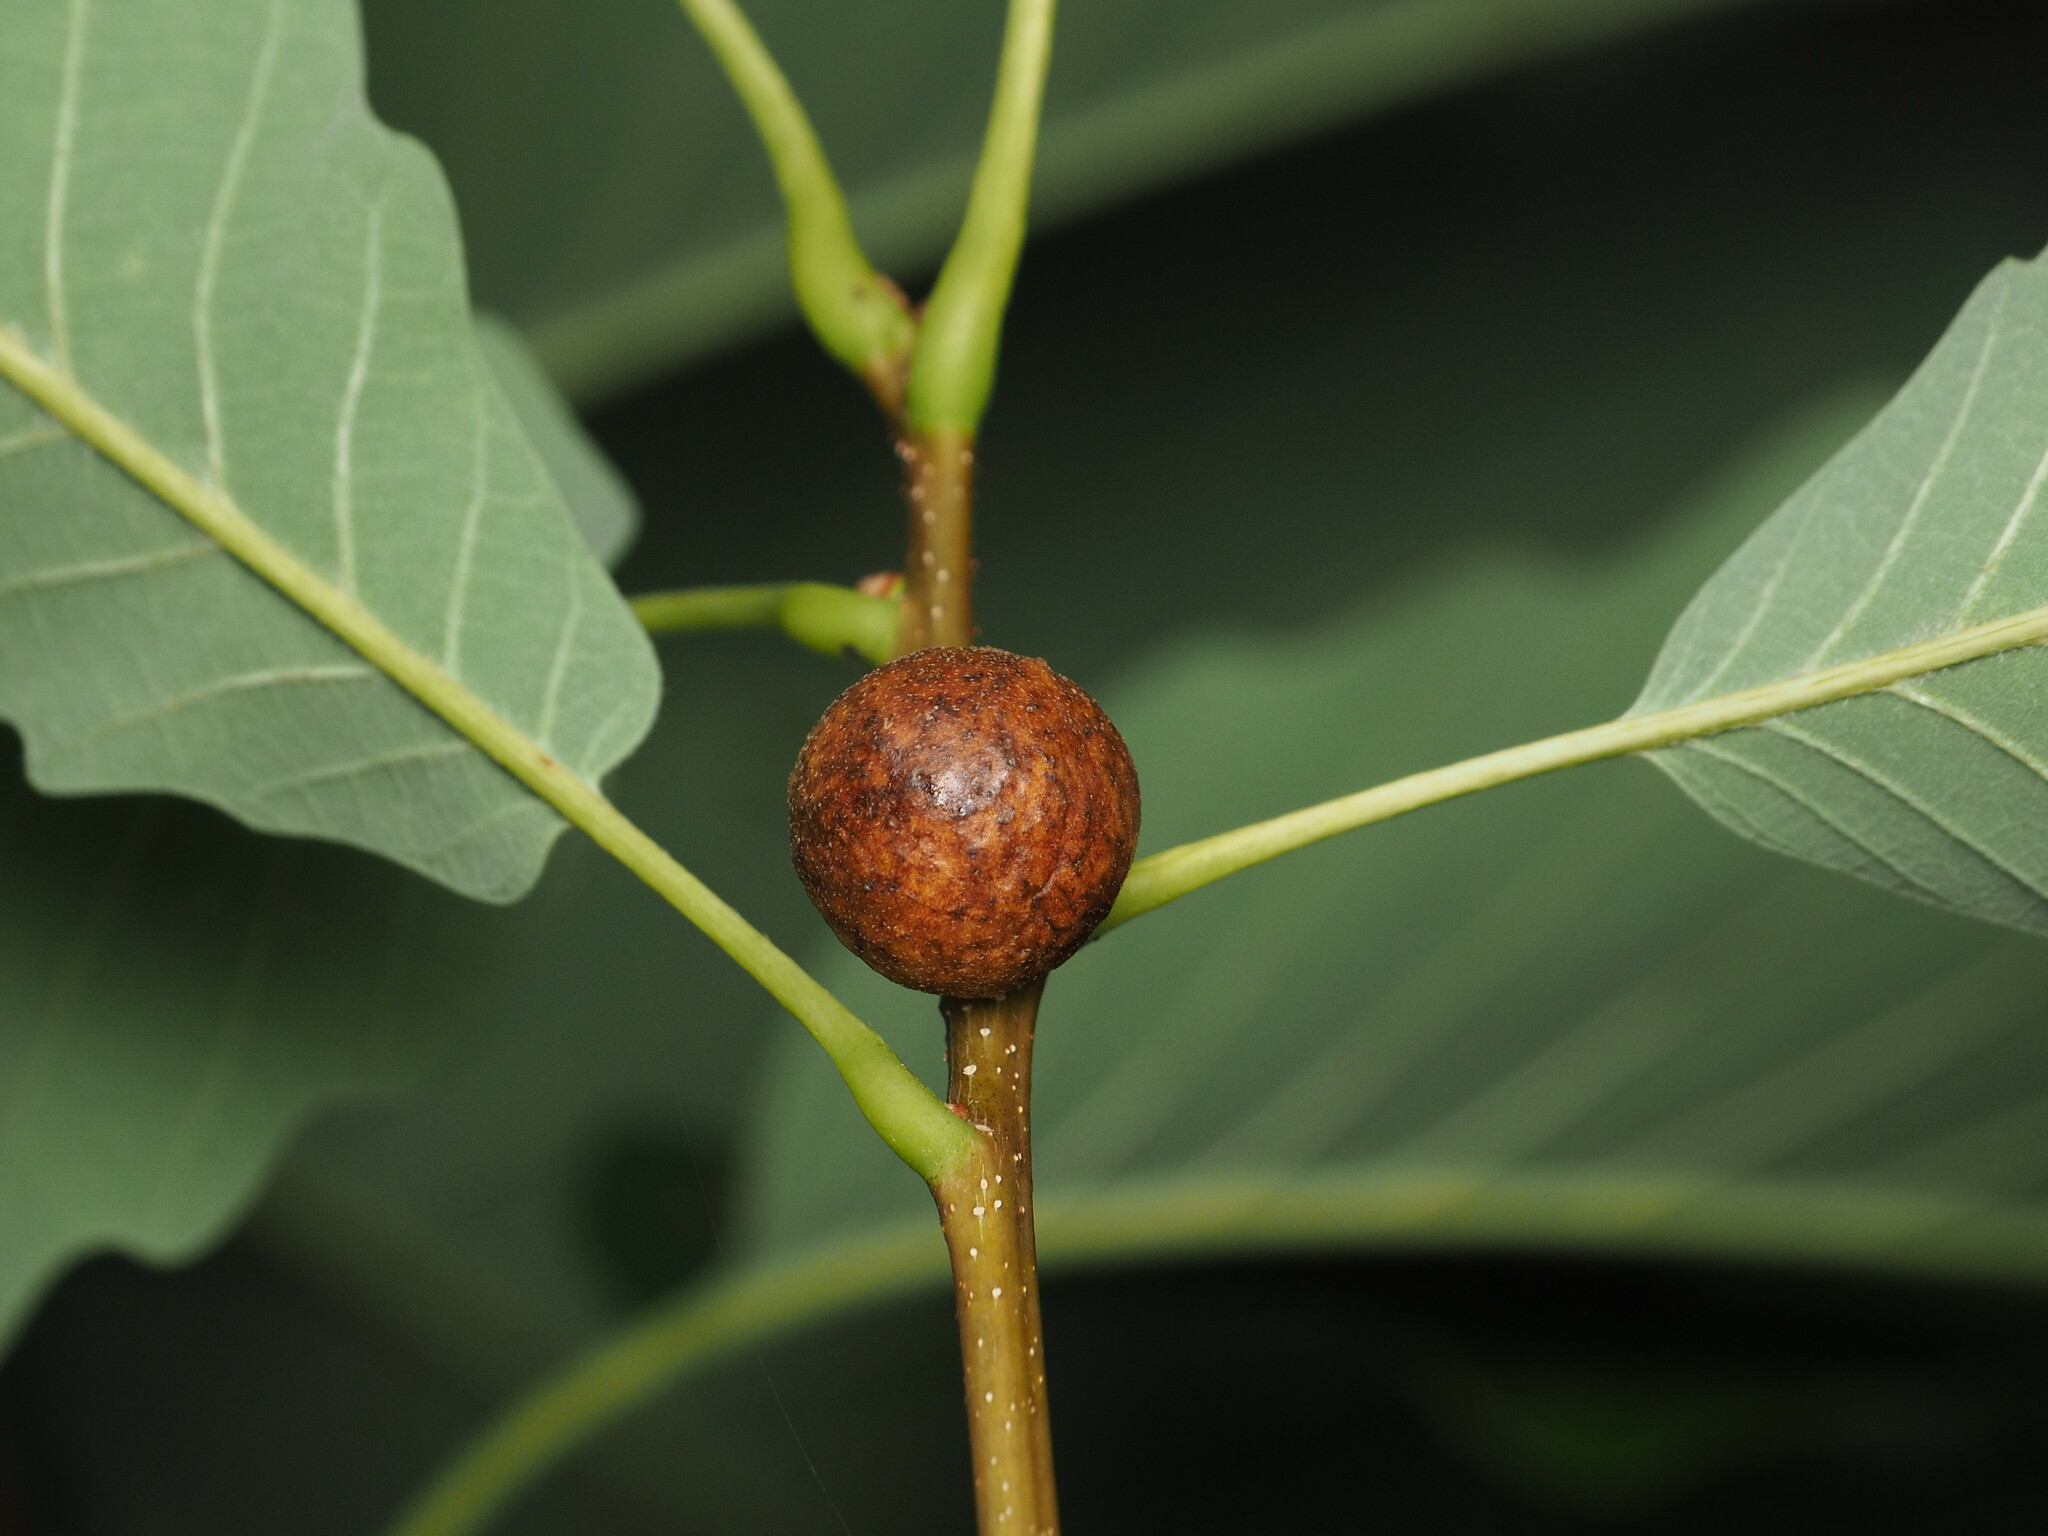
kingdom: Animalia
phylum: Arthropoda
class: Insecta
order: Hymenoptera
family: Cynipidae
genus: Disholcaspis
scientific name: Disholcaspis quercusglobulus
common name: Round bullet gall wasp
